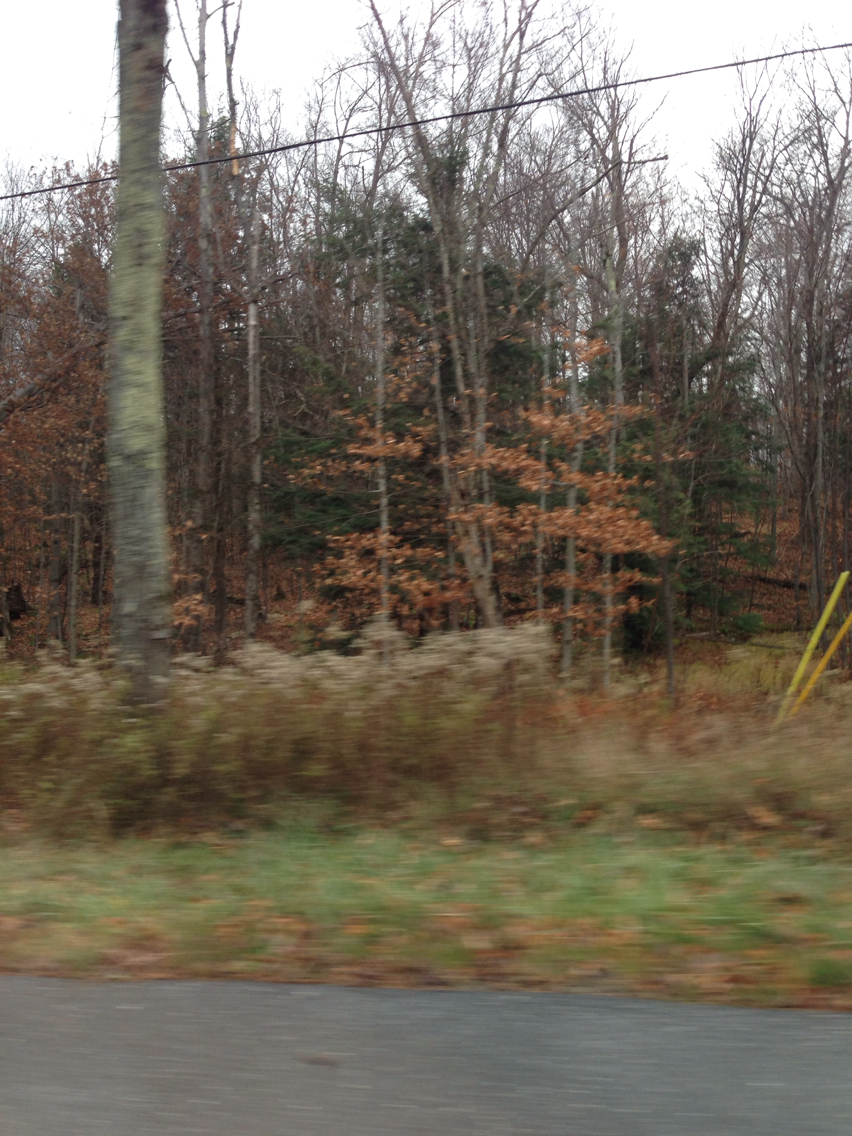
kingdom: Plantae
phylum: Tracheophyta
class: Magnoliopsida
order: Fagales
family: Fagaceae
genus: Fagus
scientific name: Fagus grandifolia
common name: American beech
